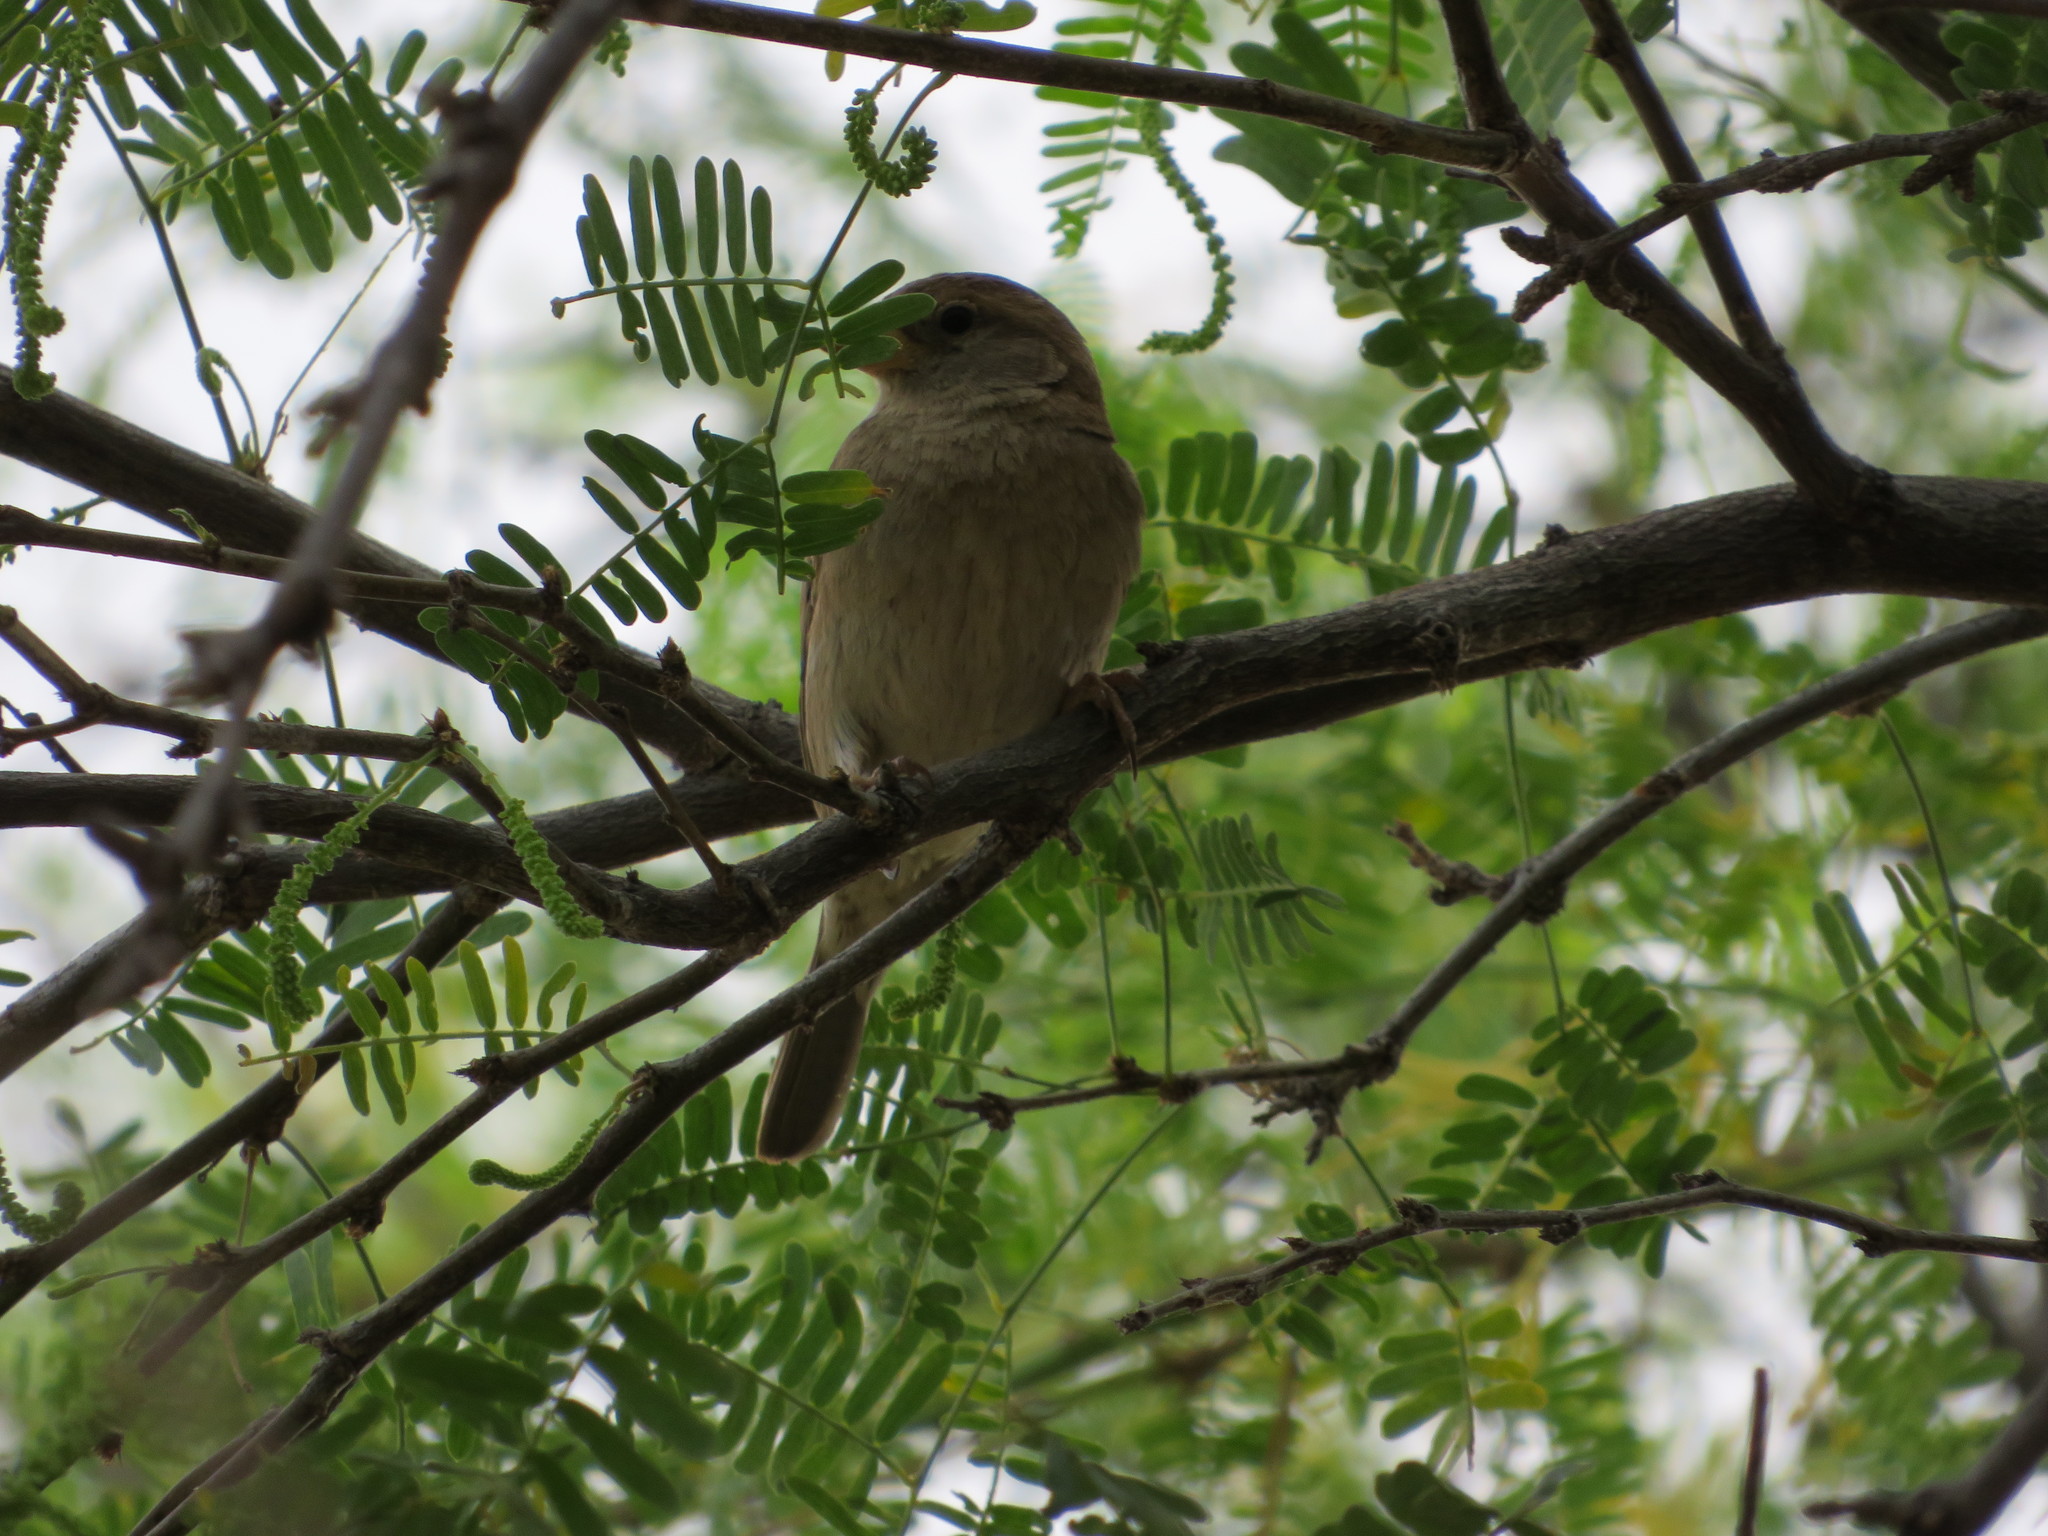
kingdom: Animalia
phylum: Chordata
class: Aves
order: Passeriformes
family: Passeridae
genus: Passer
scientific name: Passer domesticus
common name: House sparrow
